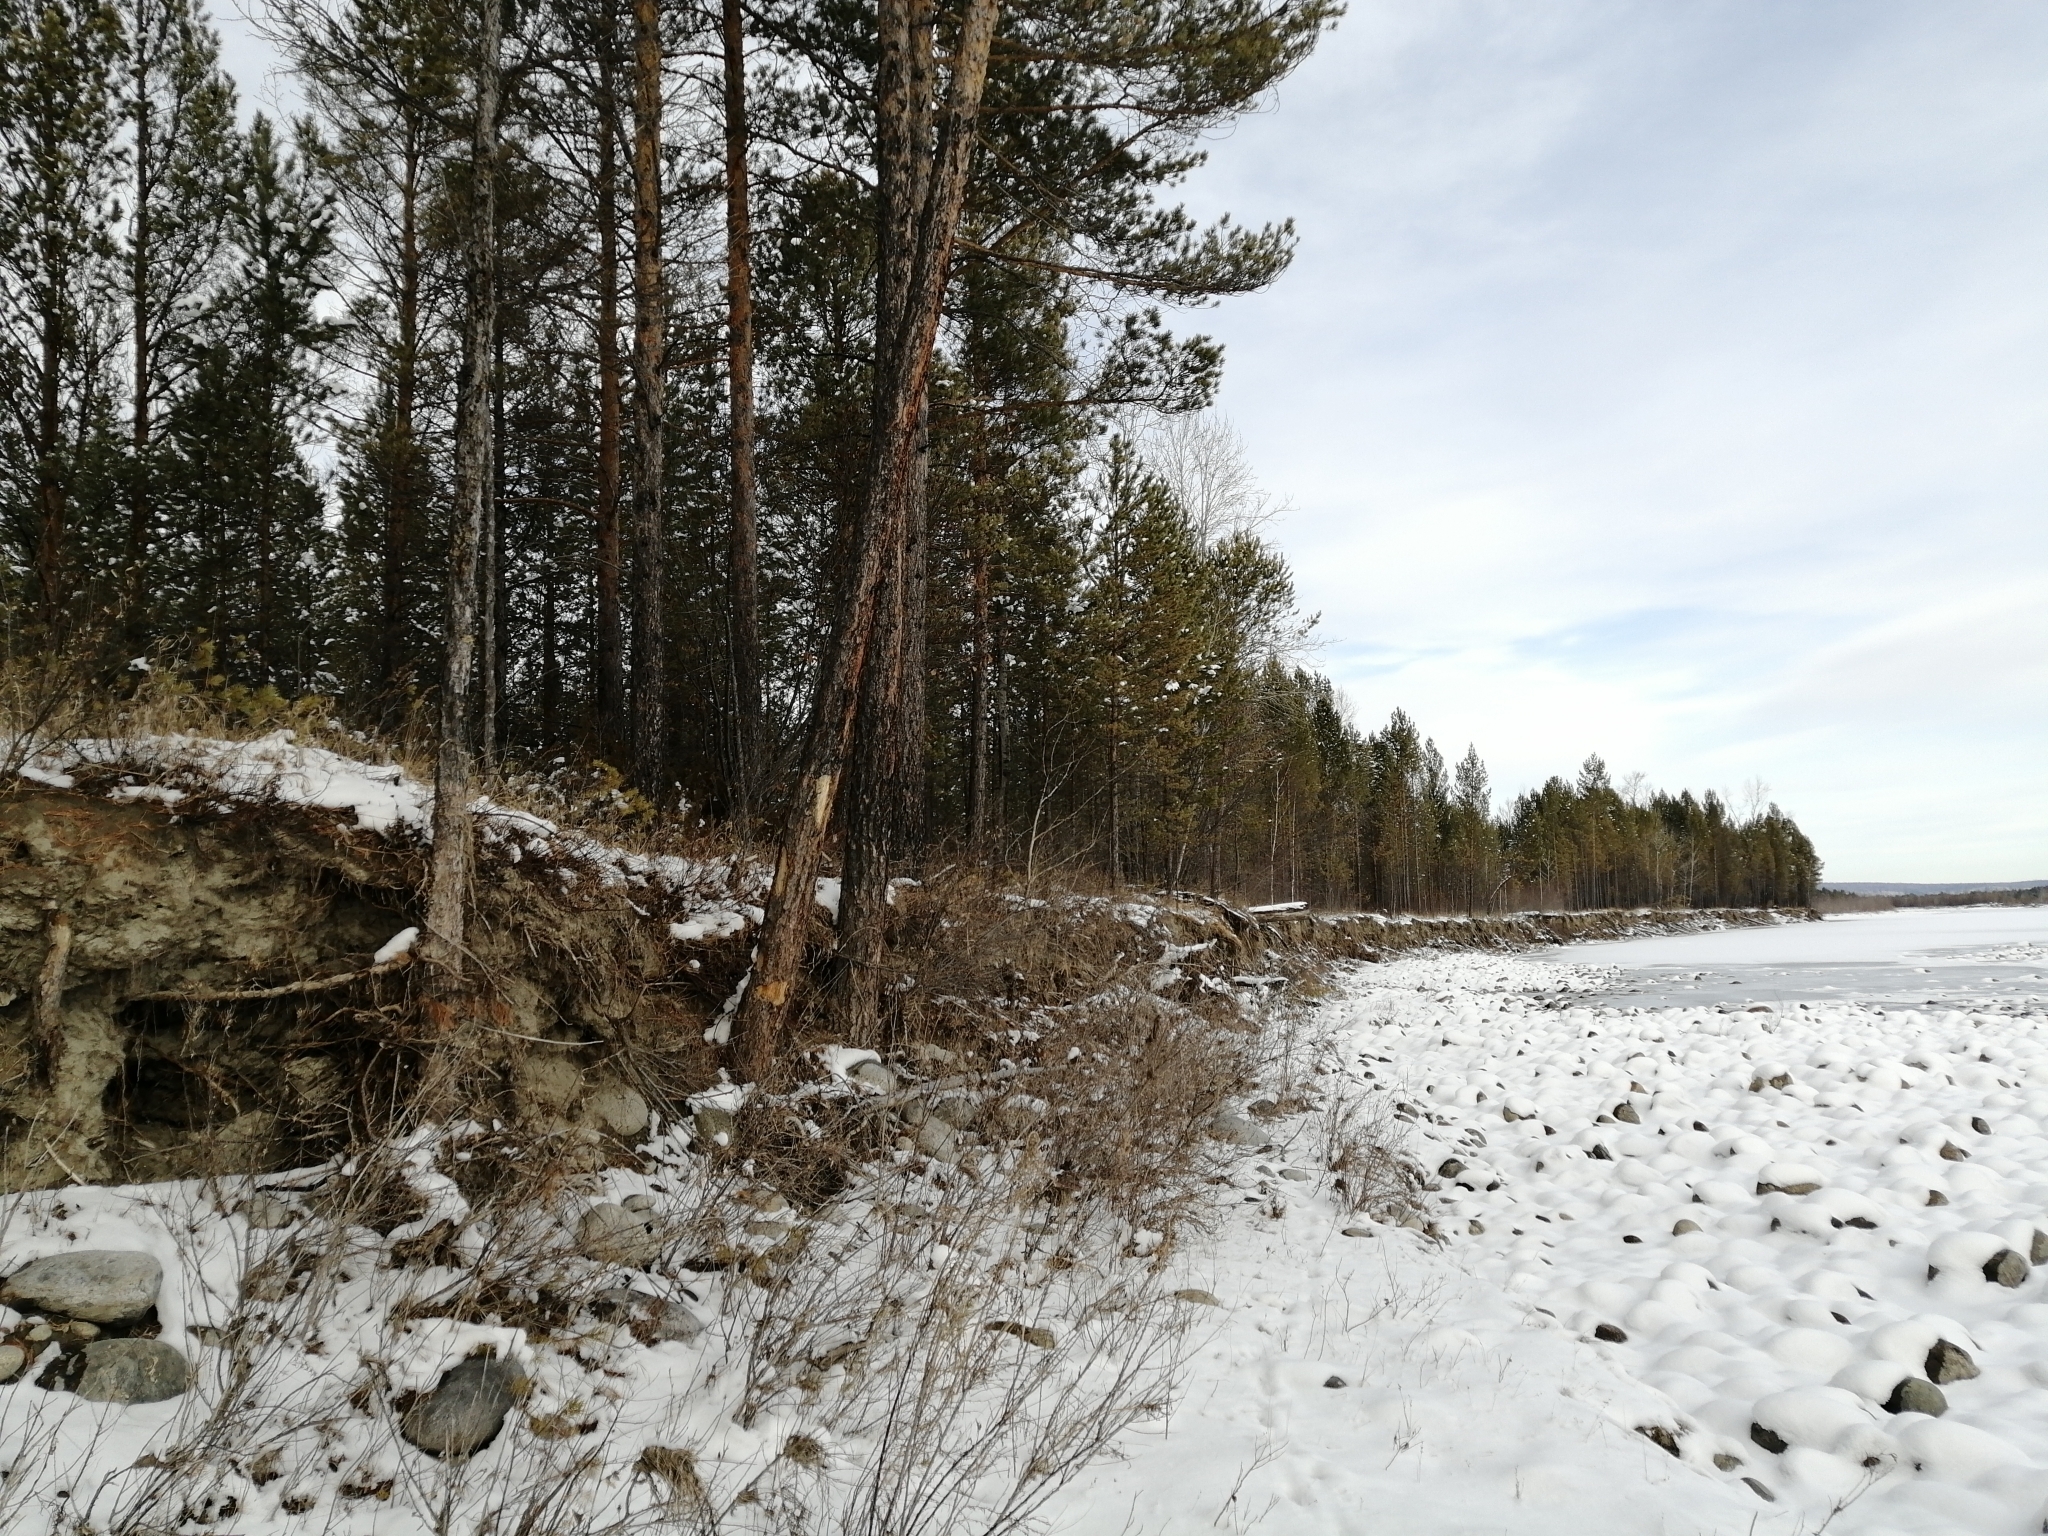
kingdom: Plantae
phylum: Tracheophyta
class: Pinopsida
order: Pinales
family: Pinaceae
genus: Pinus
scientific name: Pinus sylvestris
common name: Scots pine
